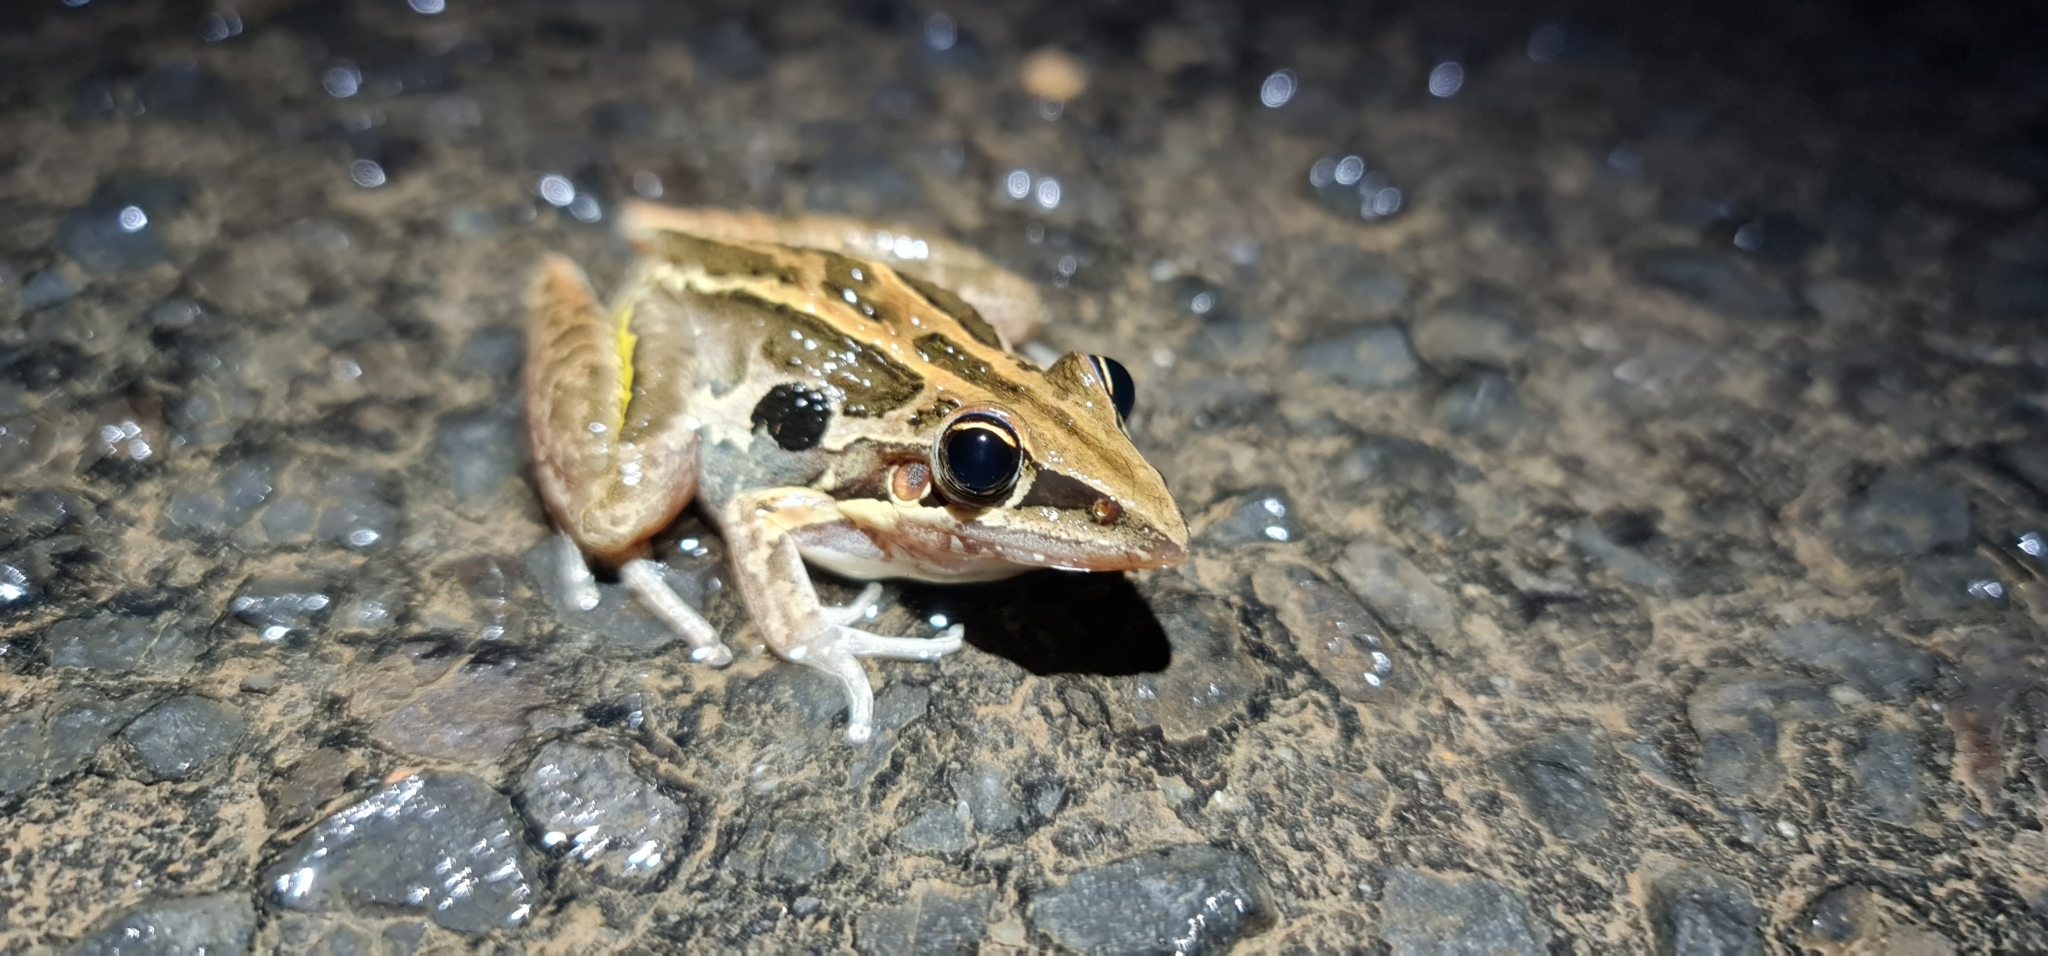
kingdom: Animalia
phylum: Chordata
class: Amphibia
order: Anura
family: Pelodryadidae
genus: Litoria
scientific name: Litoria nasuta
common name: Rocket frog
